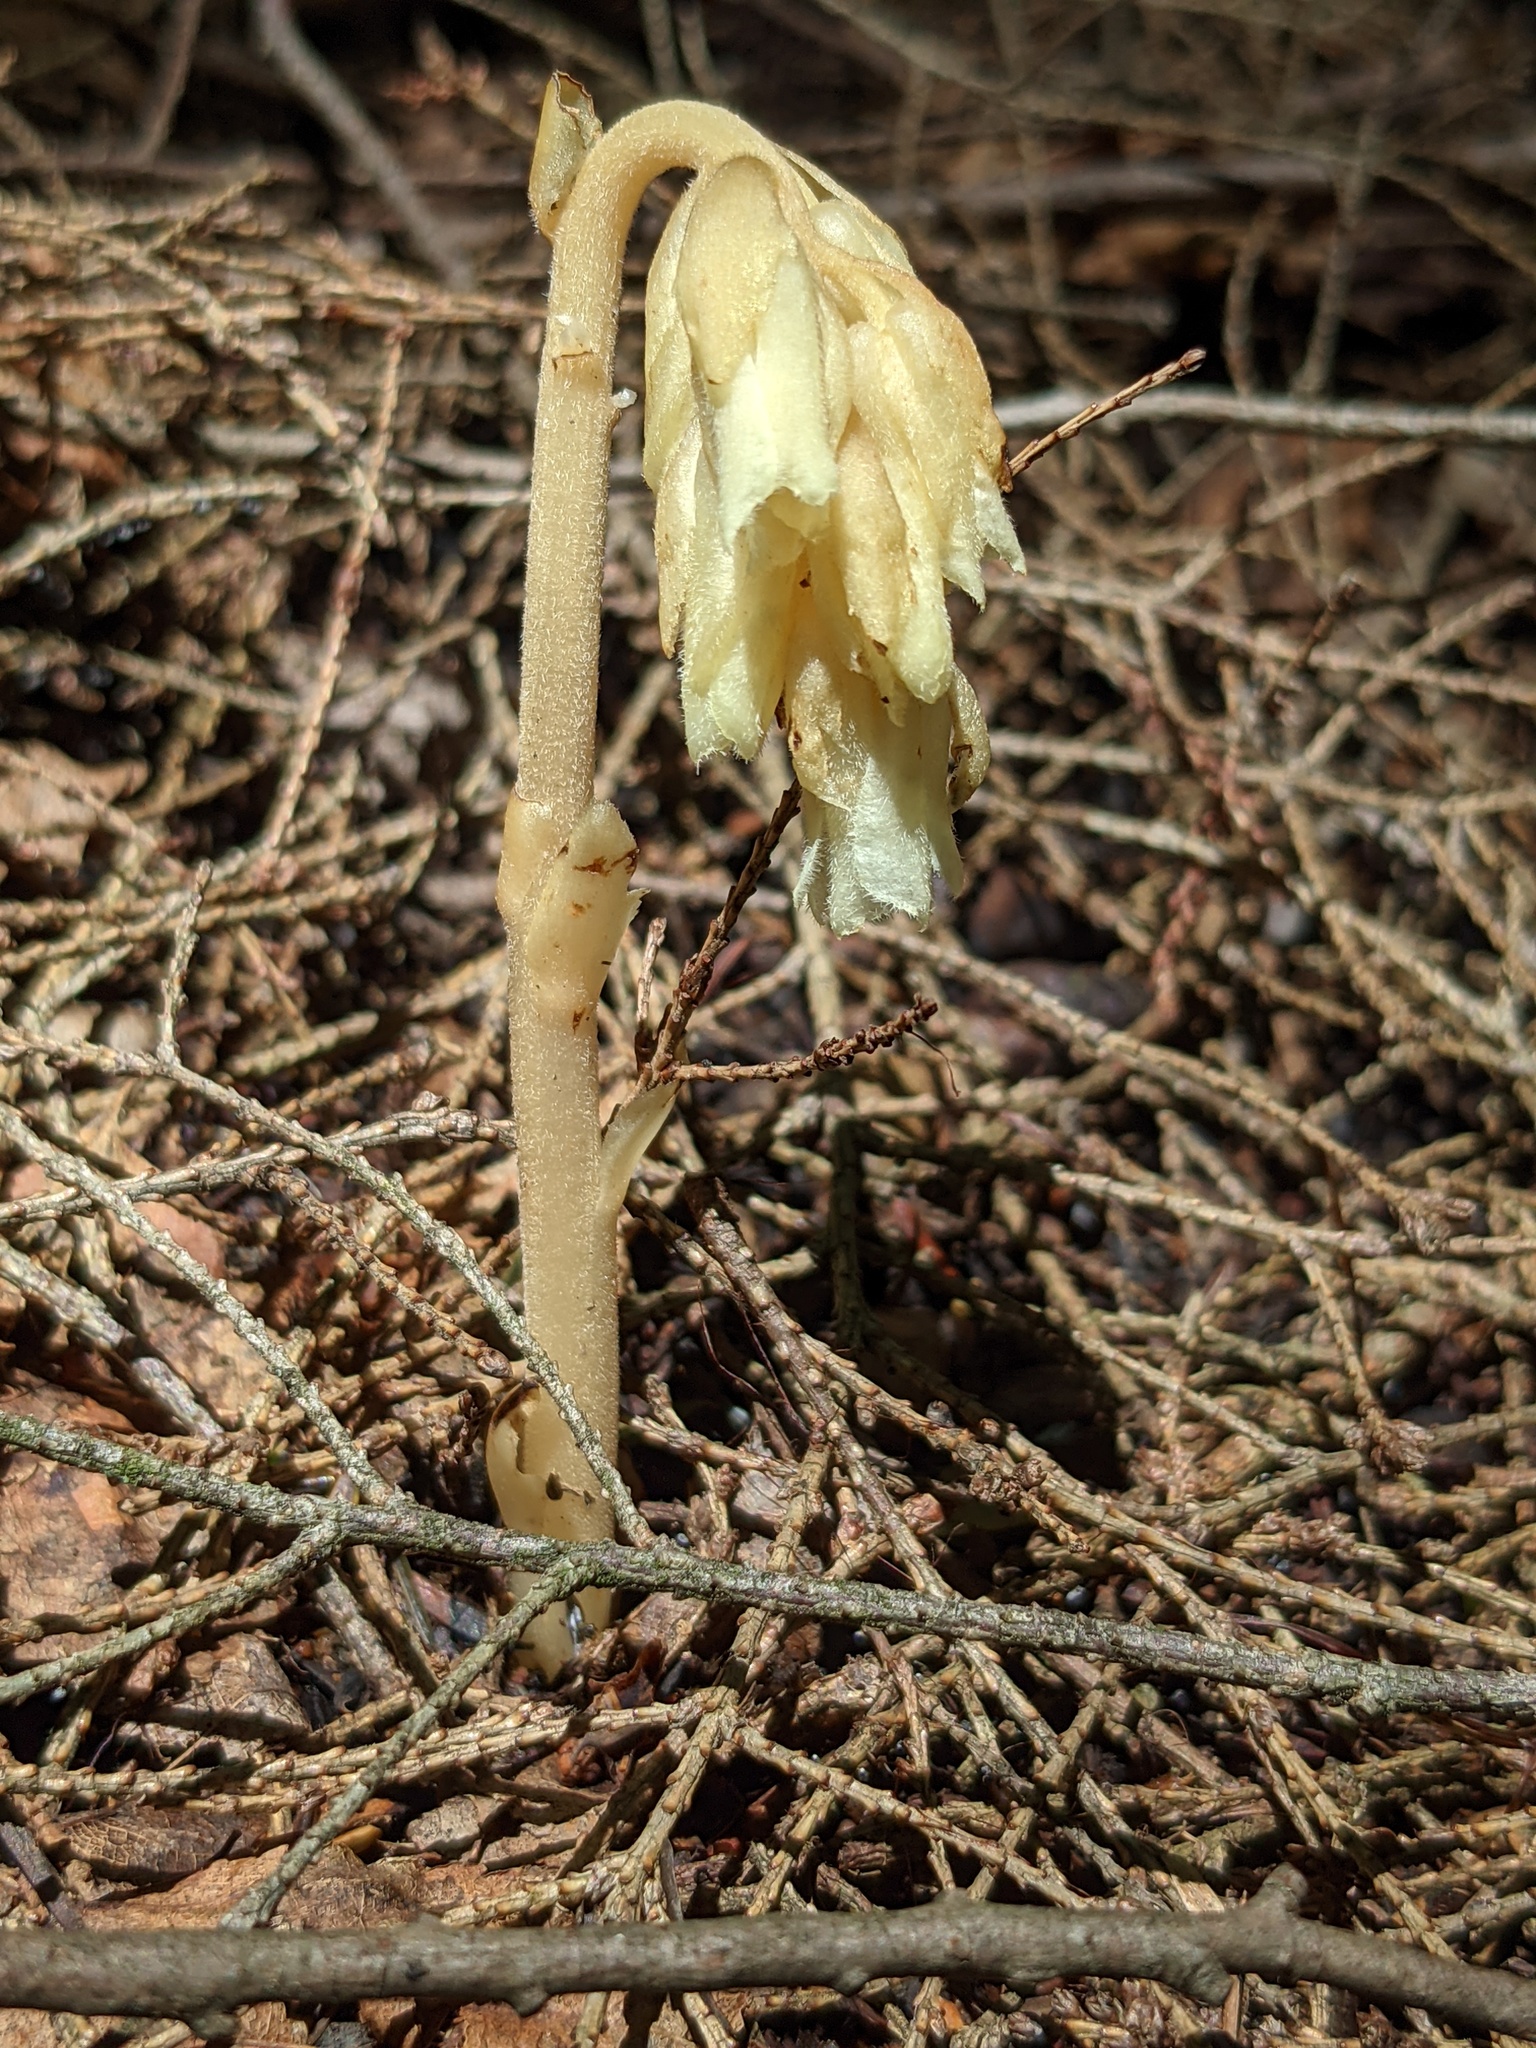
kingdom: Plantae
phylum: Tracheophyta
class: Magnoliopsida
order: Ericales
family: Ericaceae
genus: Hypopitys
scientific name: Hypopitys monotropa
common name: Yellow bird's-nest
